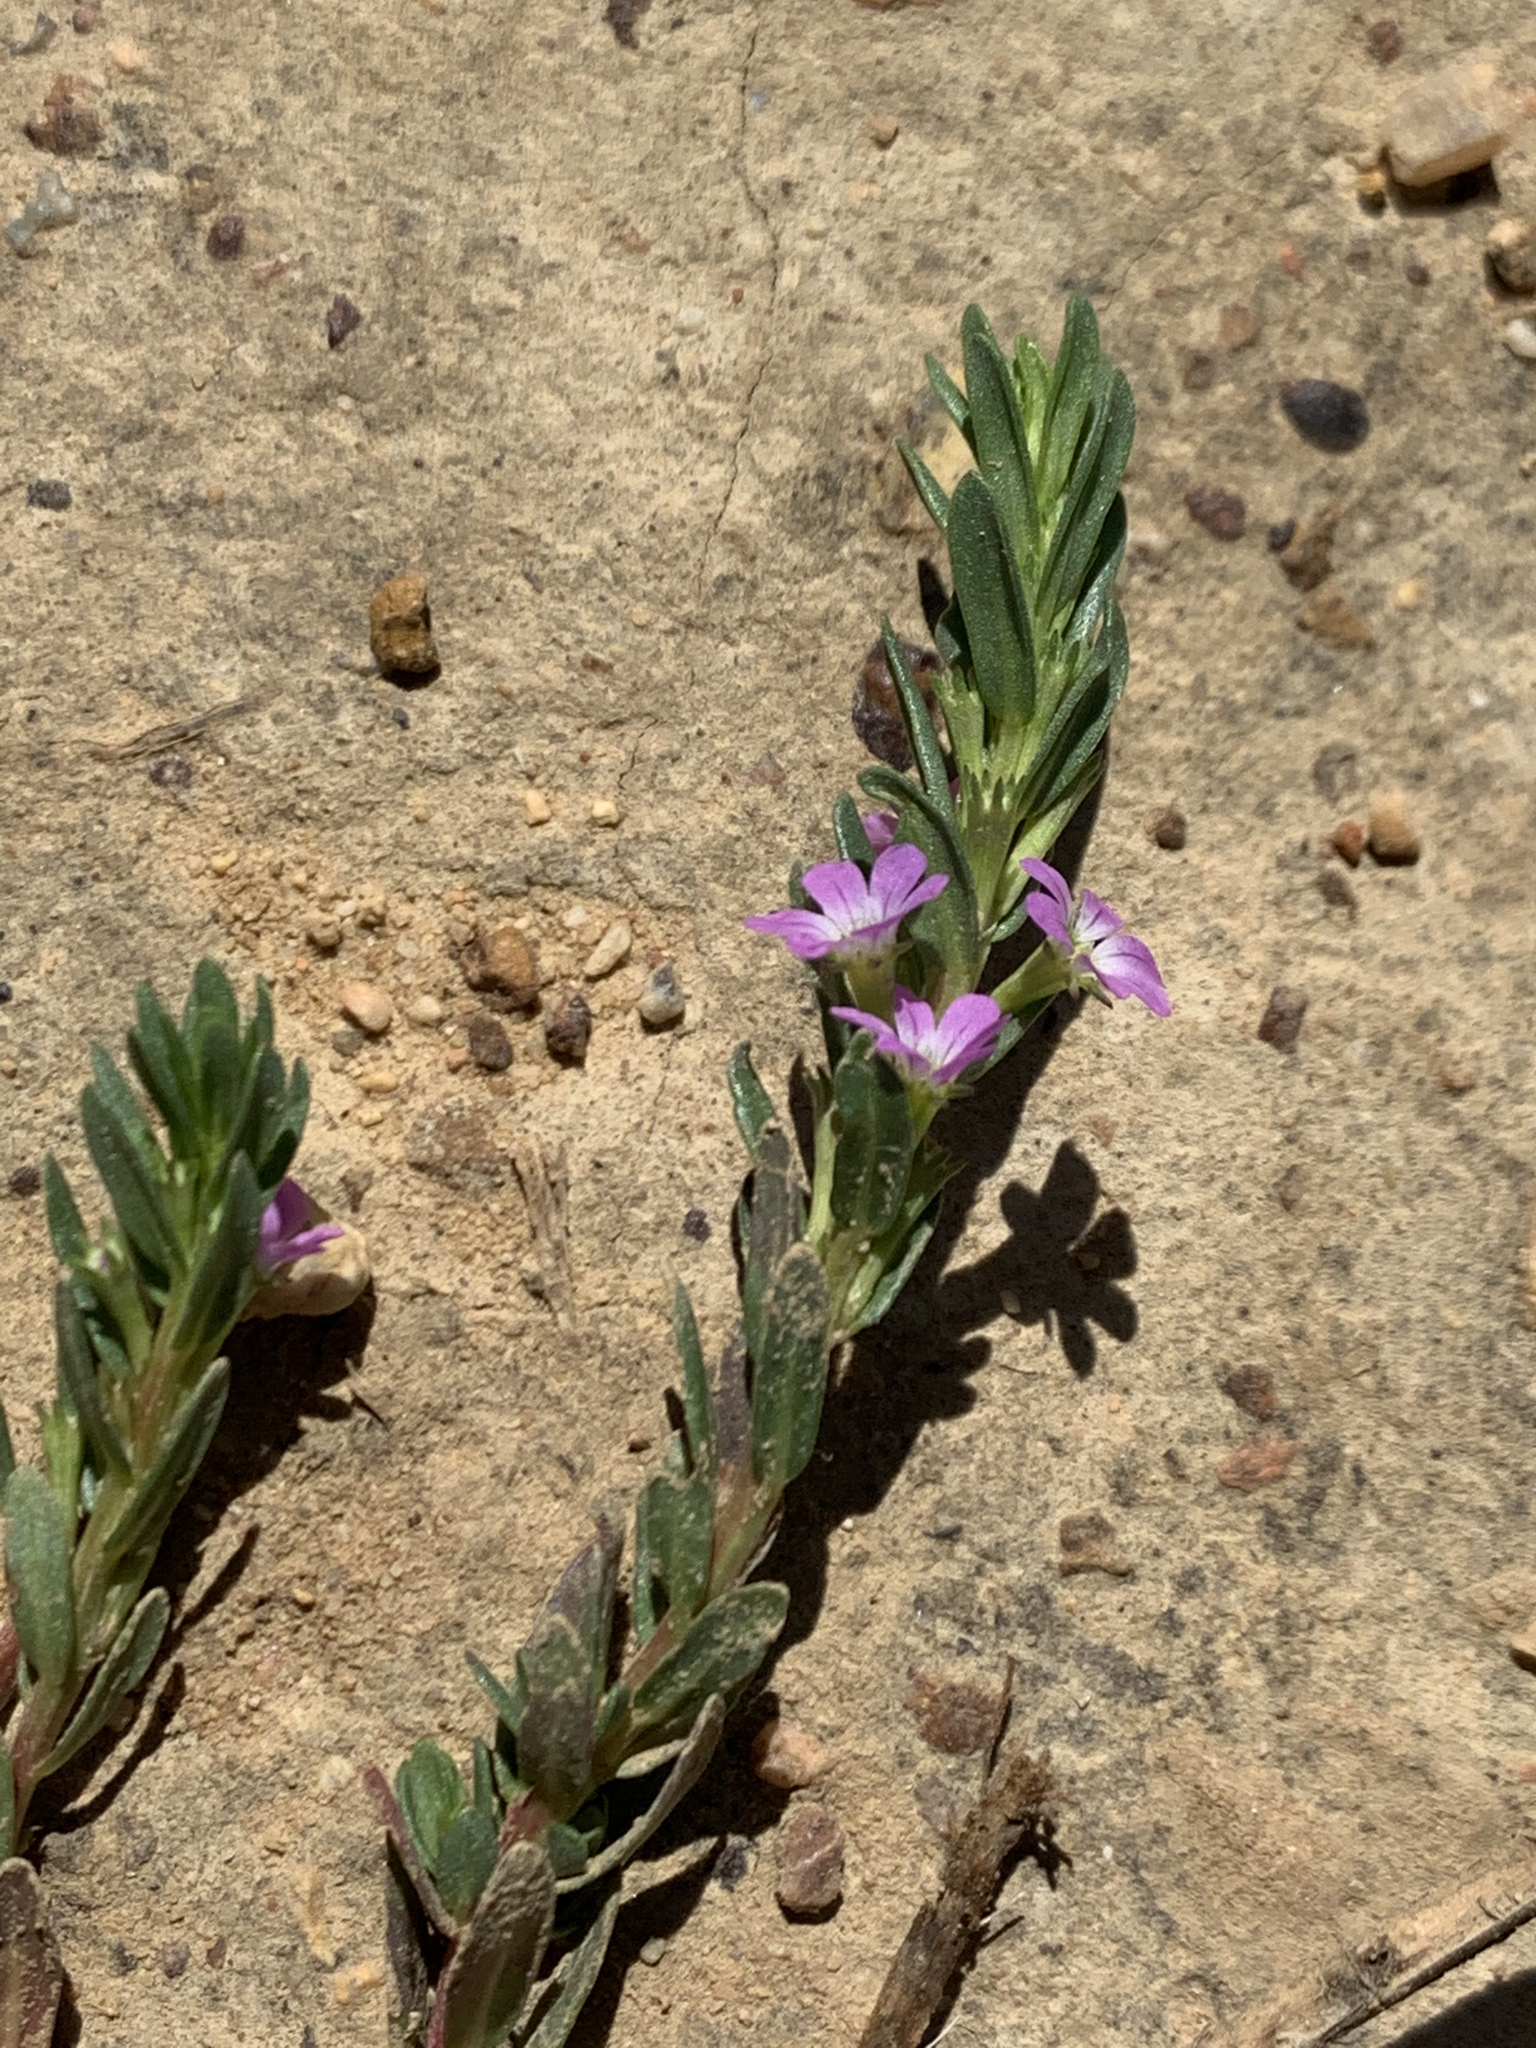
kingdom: Plantae
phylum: Tracheophyta
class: Magnoliopsida
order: Myrtales
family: Lythraceae
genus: Lythrum
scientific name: Lythrum hyssopifolia
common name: Grass-poly
